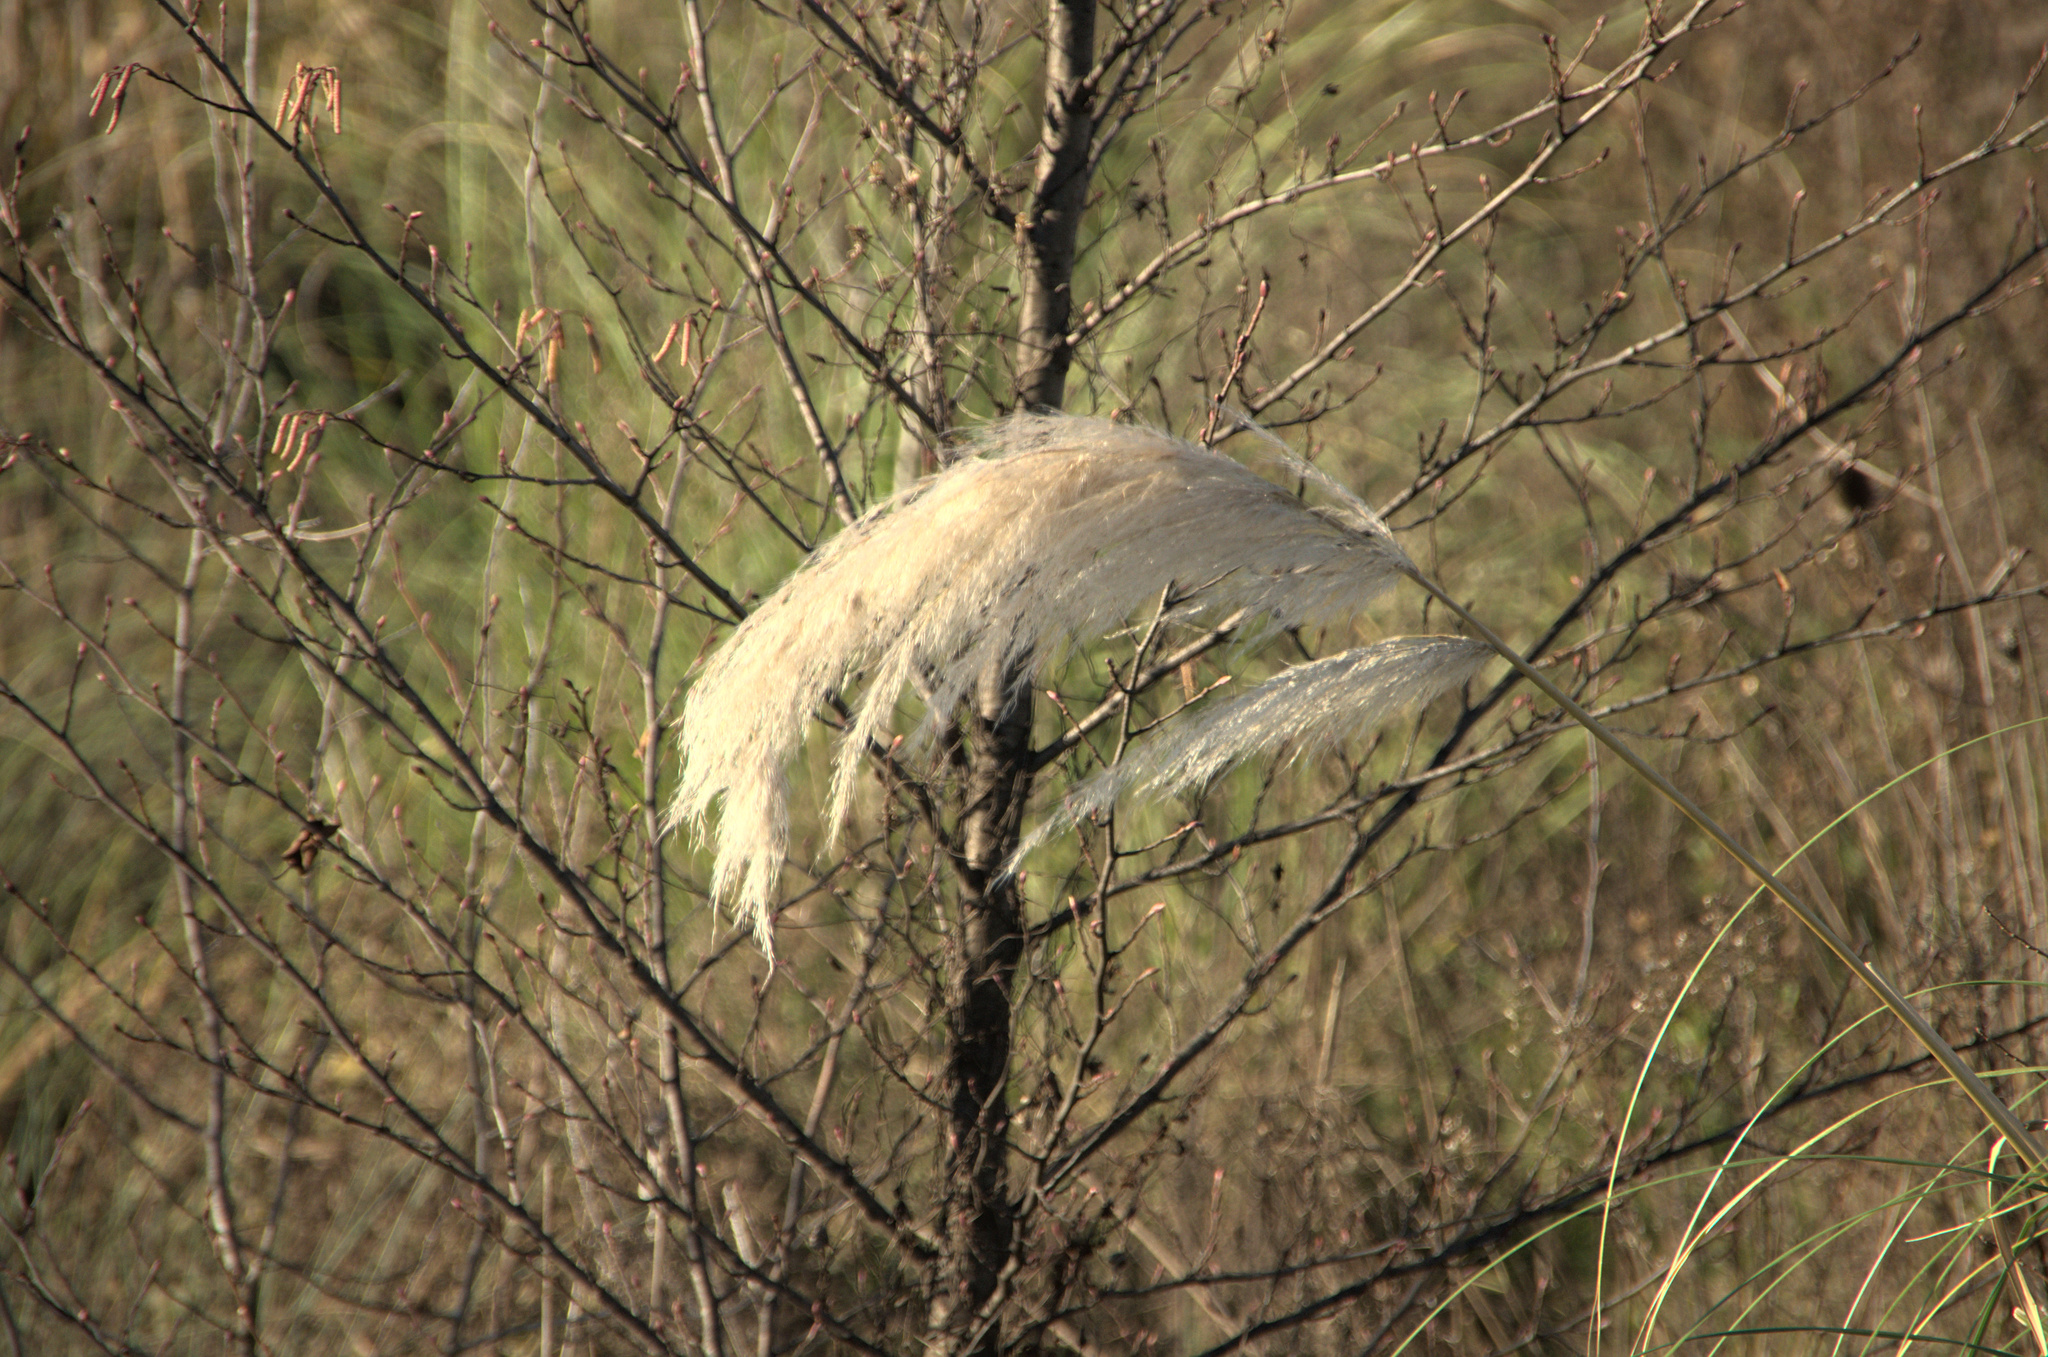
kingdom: Plantae
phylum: Tracheophyta
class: Liliopsida
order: Poales
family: Poaceae
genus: Cortaderia
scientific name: Cortaderia selloana
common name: Uruguayan pampas grass
